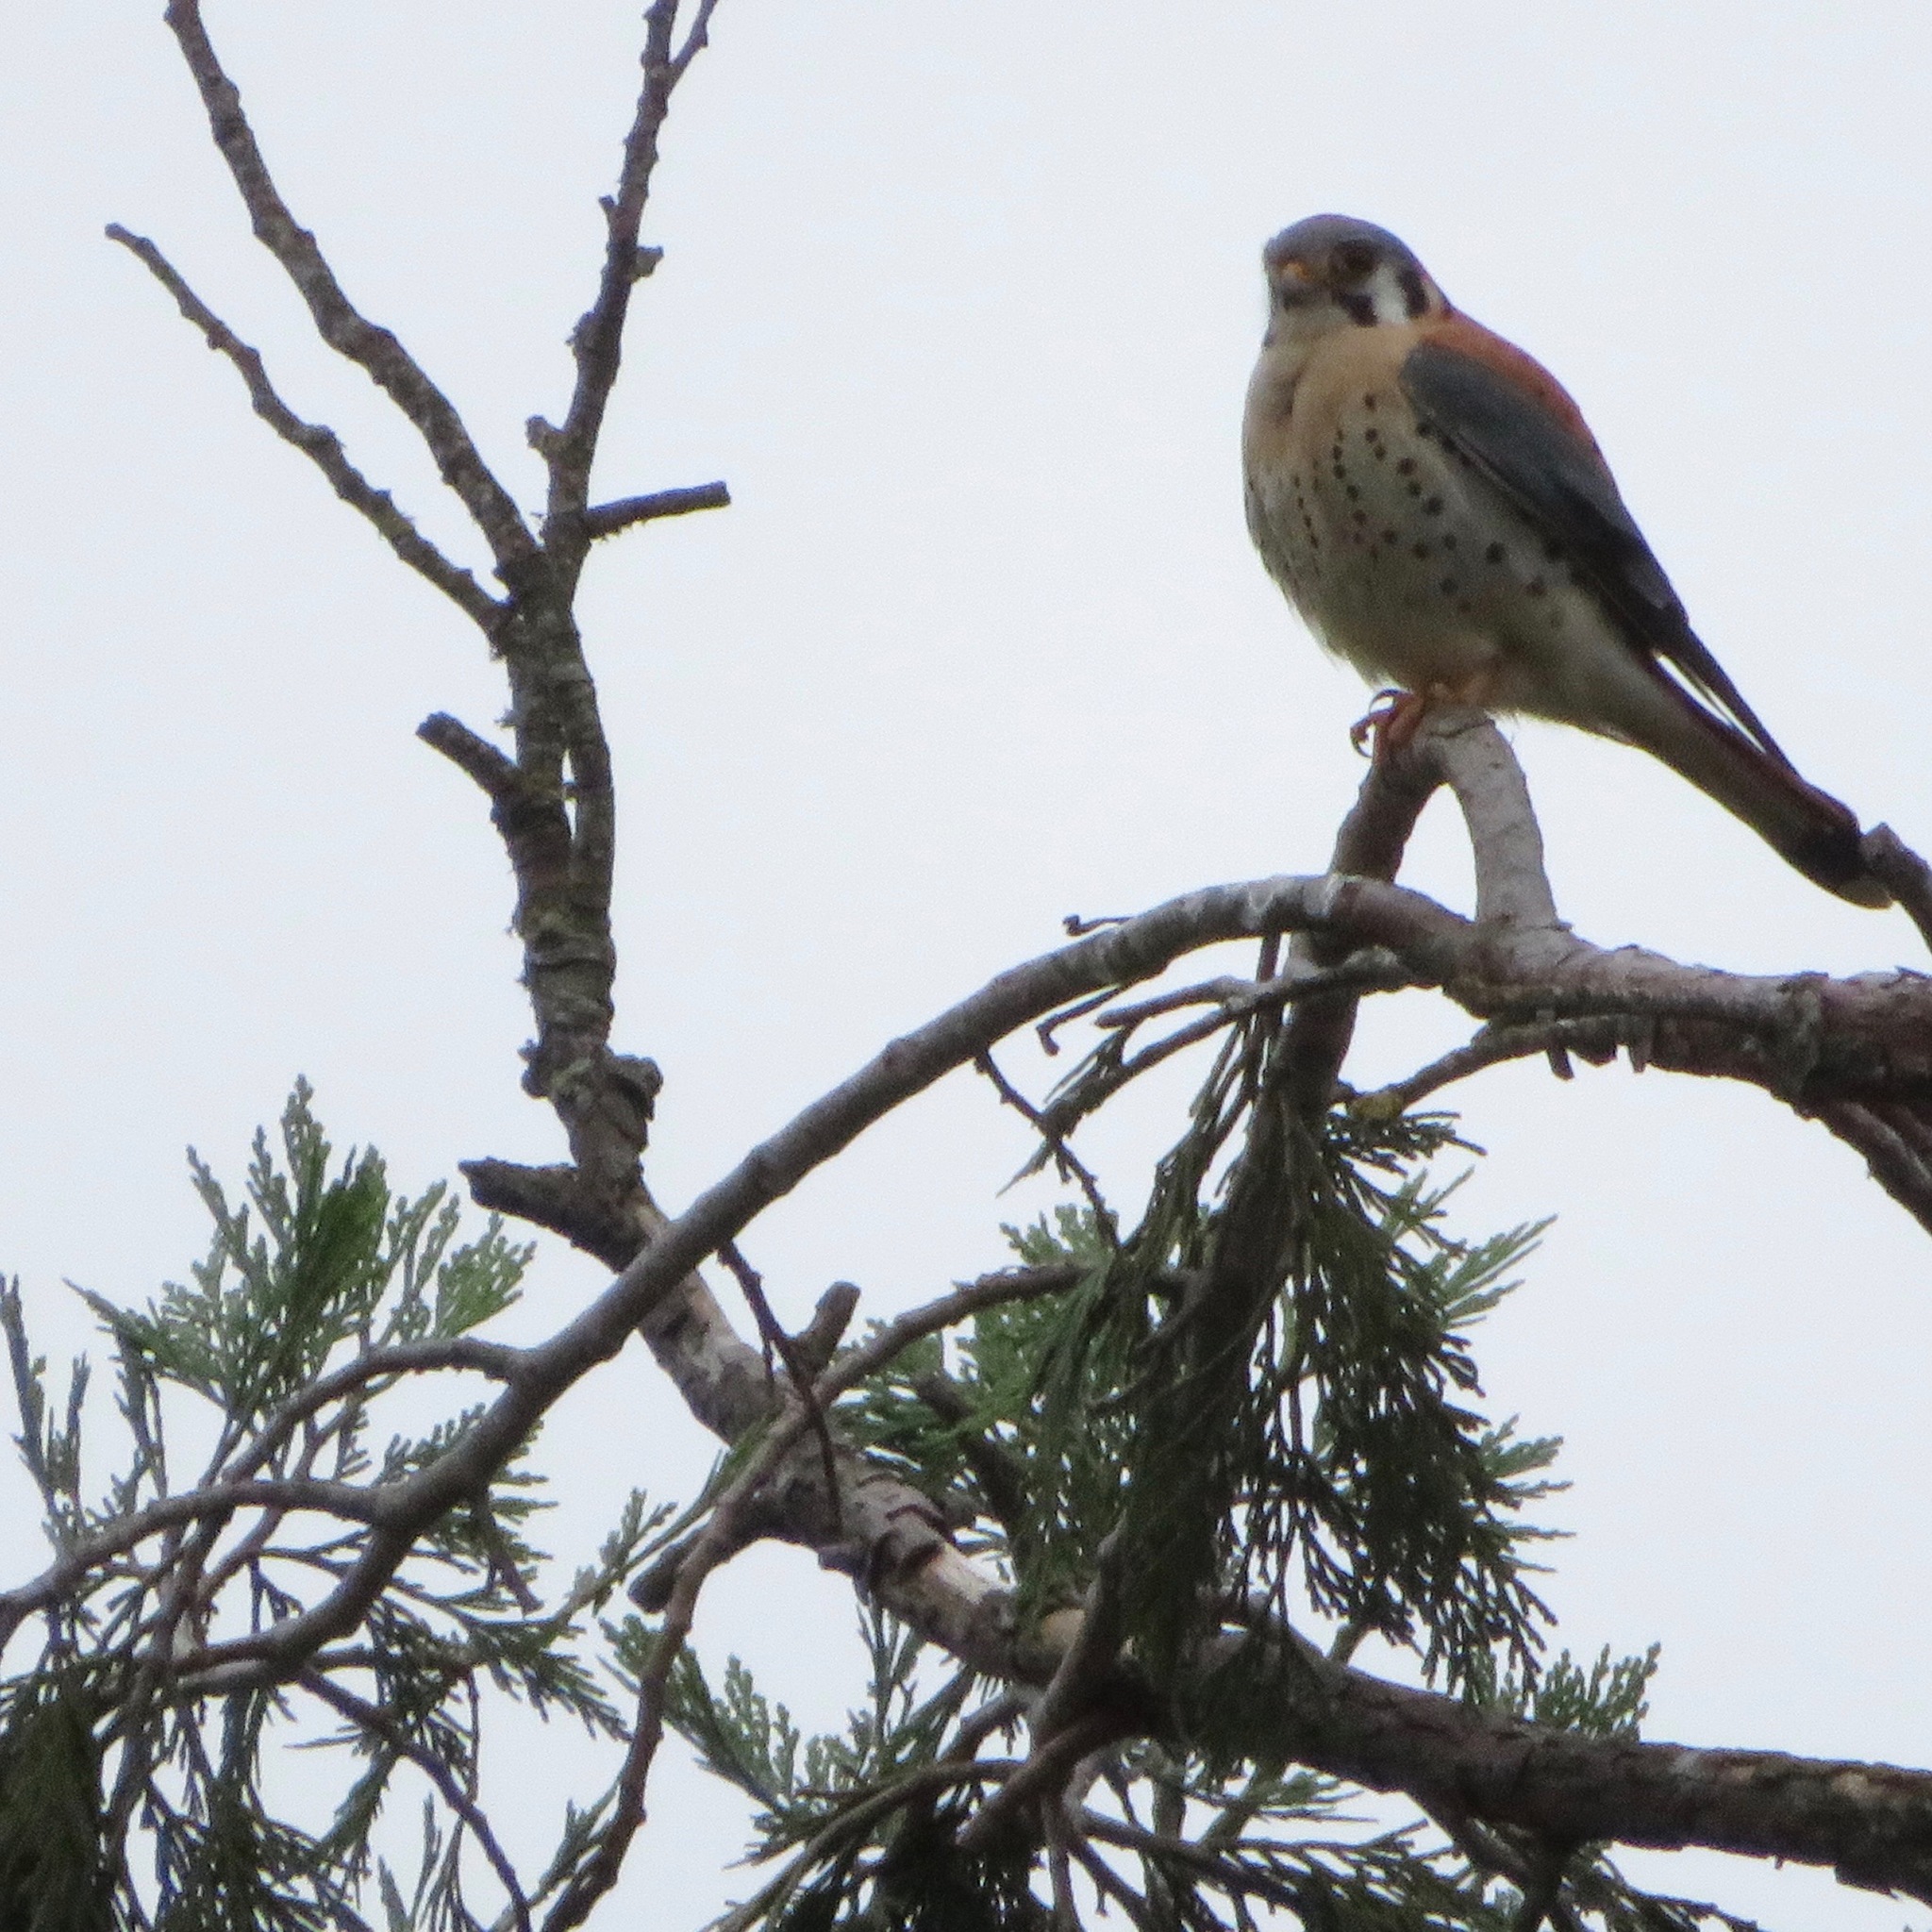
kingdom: Animalia
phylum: Chordata
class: Aves
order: Falconiformes
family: Falconidae
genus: Falco
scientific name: Falco sparverius
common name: American kestrel
